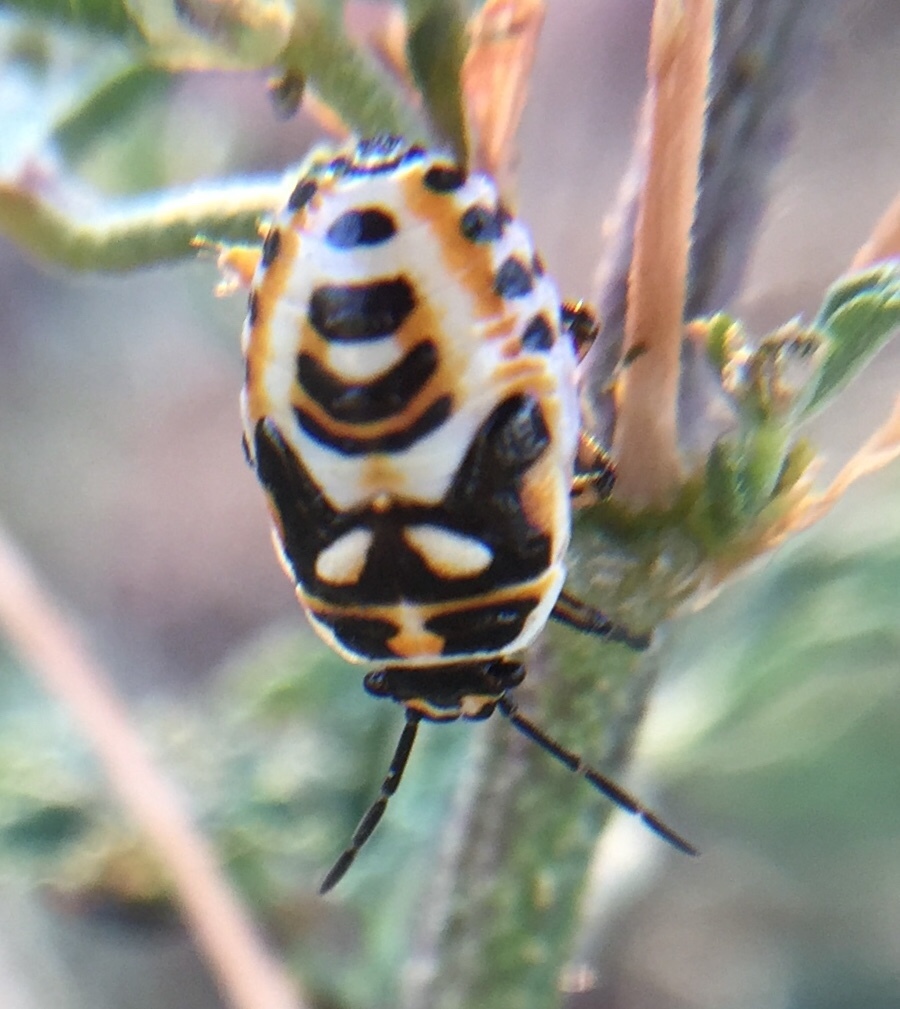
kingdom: Animalia
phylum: Arthropoda
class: Insecta
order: Hemiptera
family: Pentatomidae
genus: Eurydema
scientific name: Eurydema
